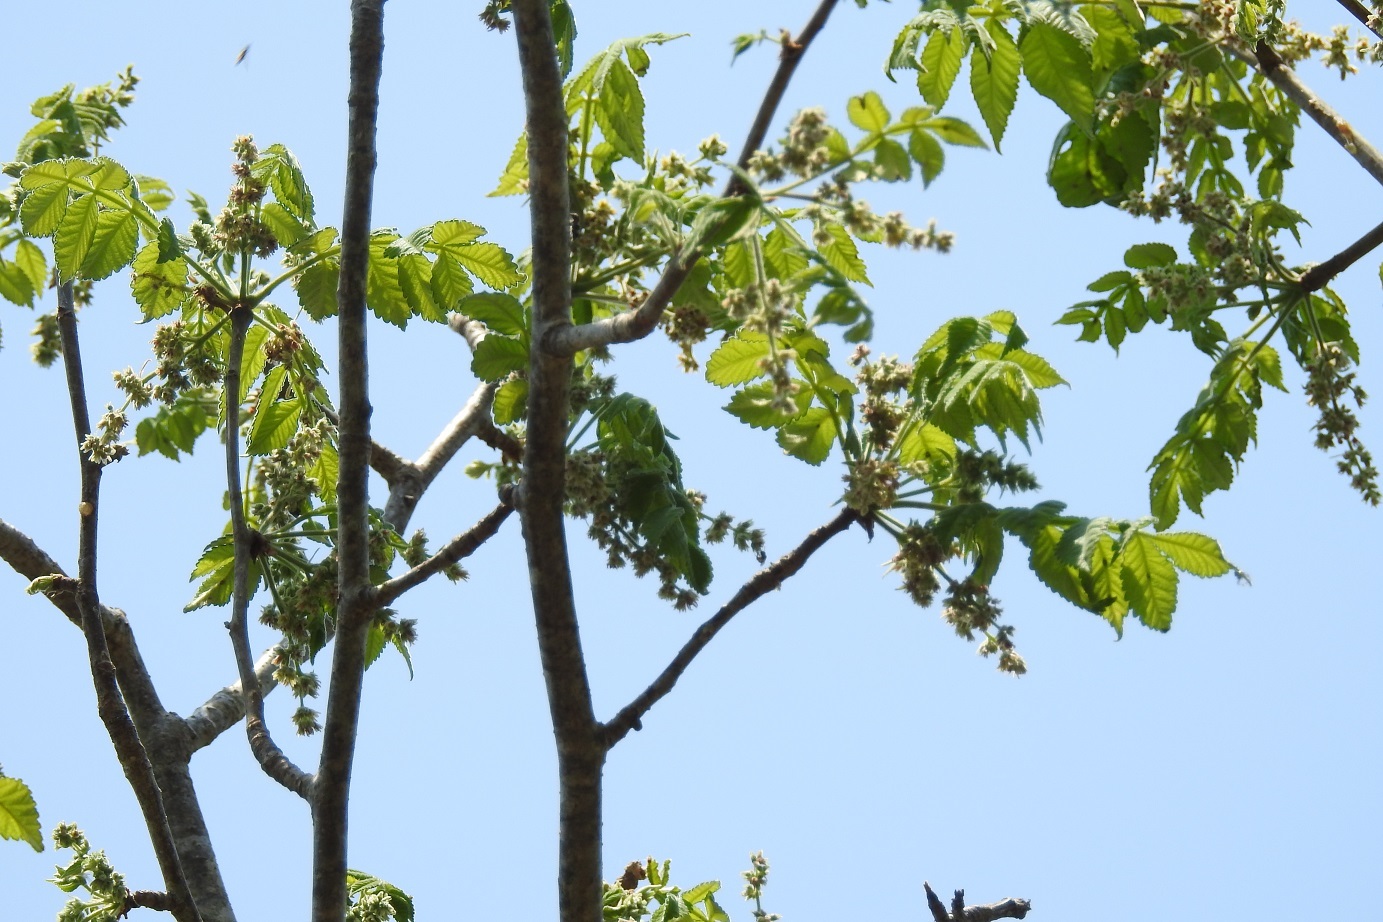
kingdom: Plantae
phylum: Tracheophyta
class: Magnoliopsida
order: Sapindales
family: Burseraceae
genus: Bursera
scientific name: Bursera excelsa
